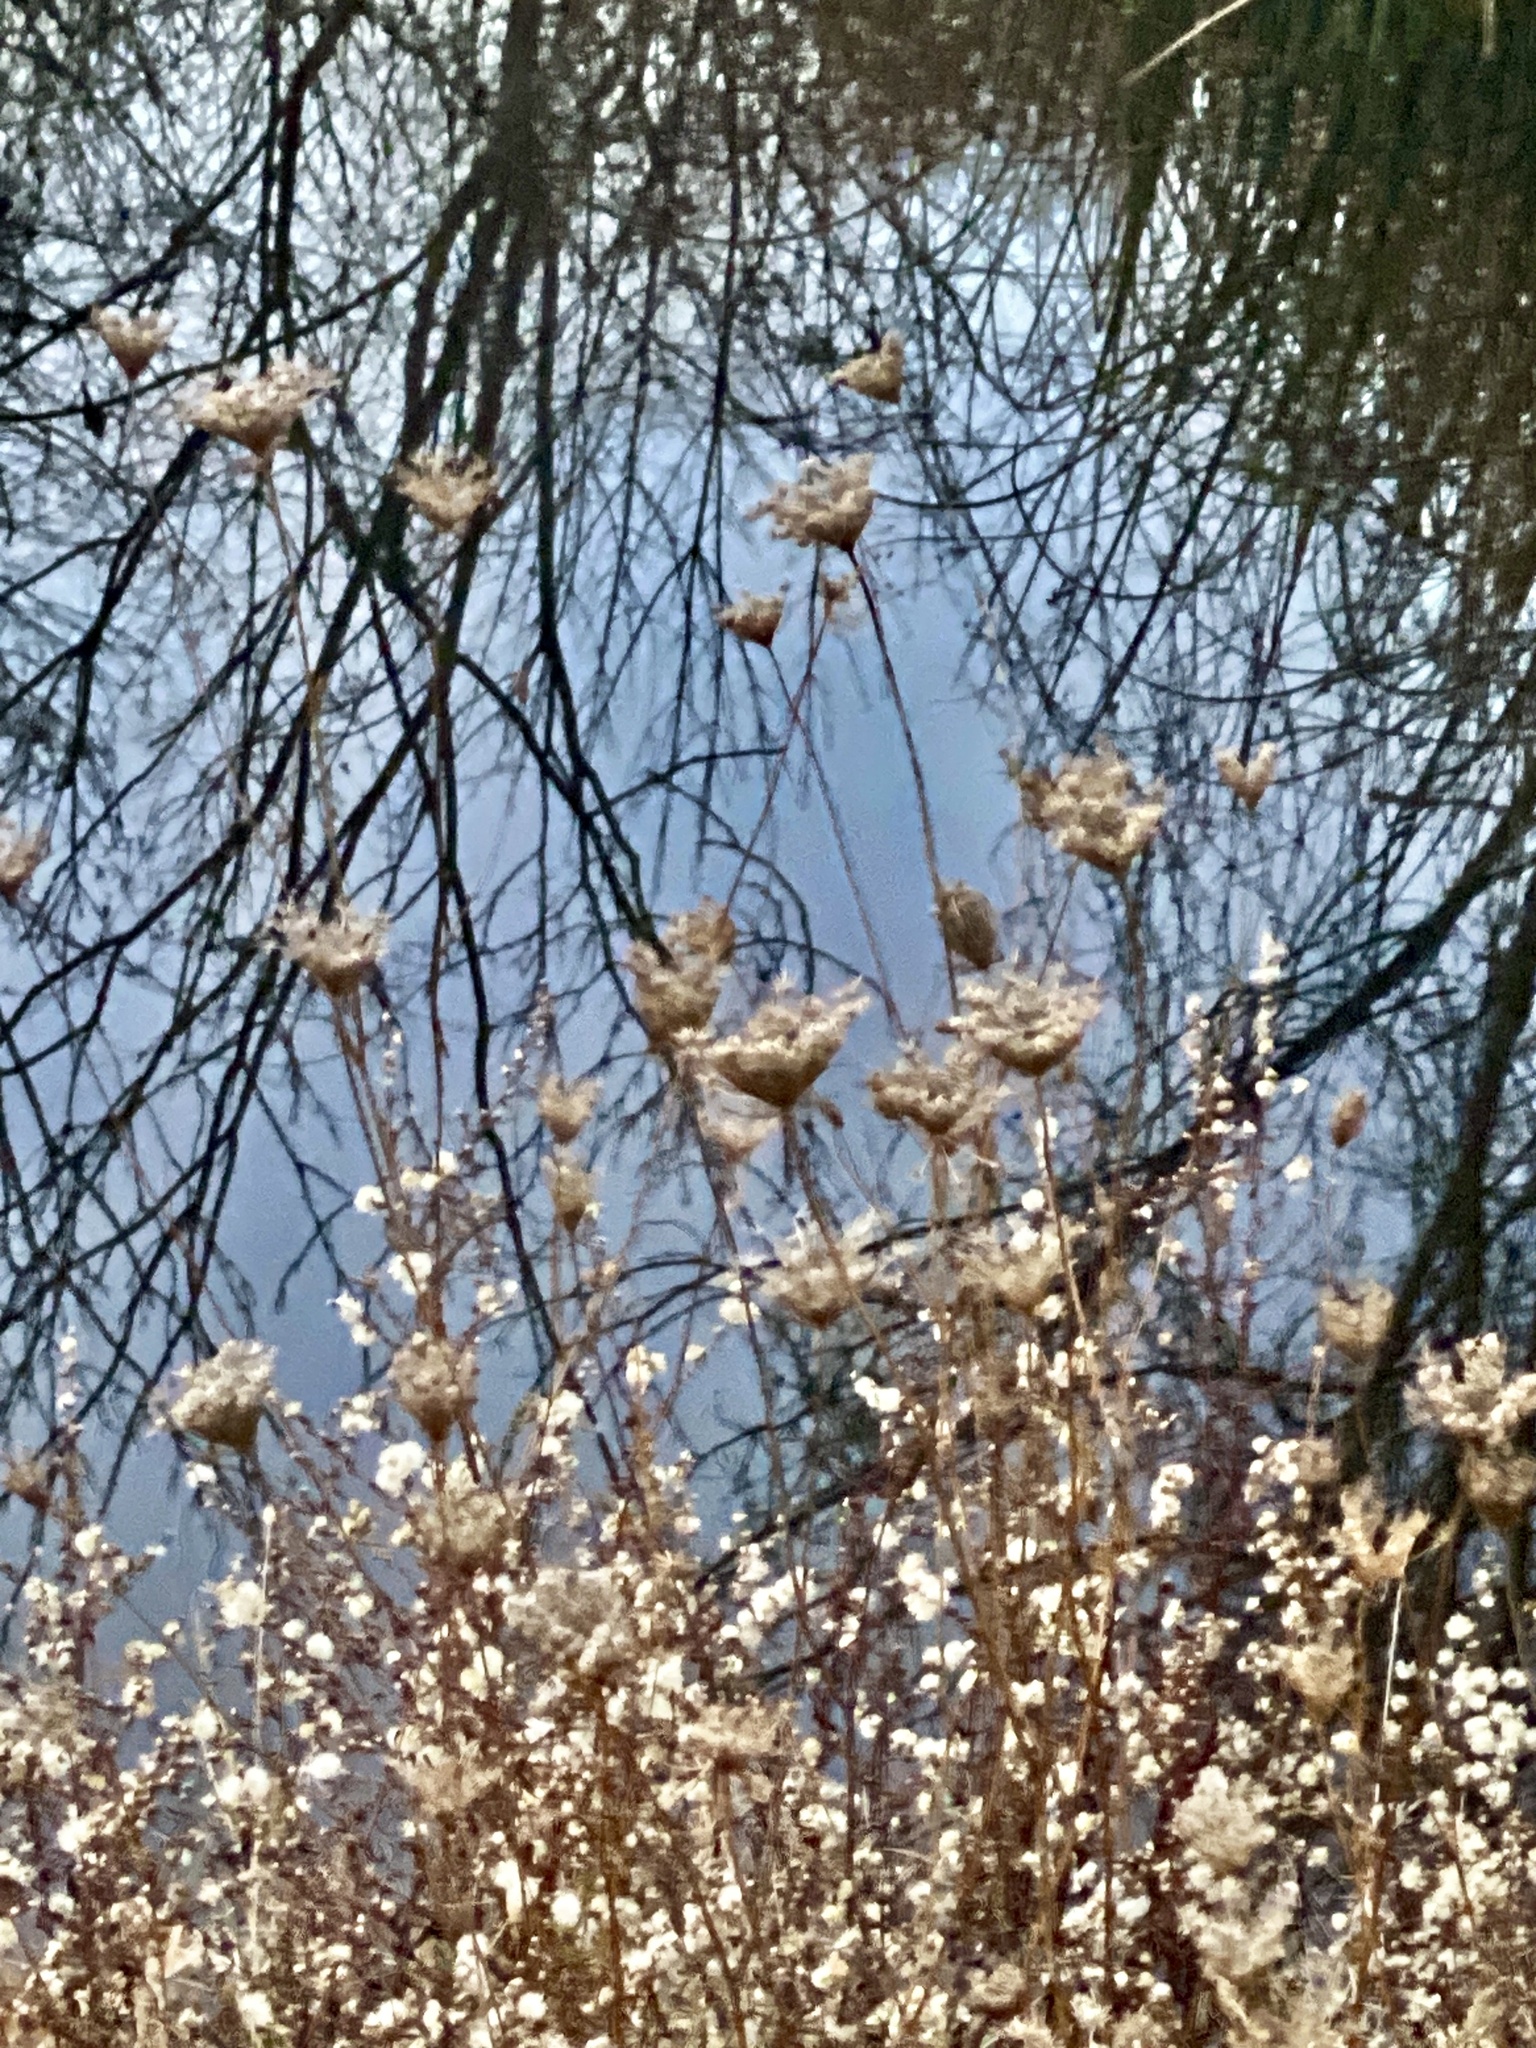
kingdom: Plantae
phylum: Tracheophyta
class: Magnoliopsida
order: Apiales
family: Apiaceae
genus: Daucus
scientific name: Daucus carota
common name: Wild carrot
